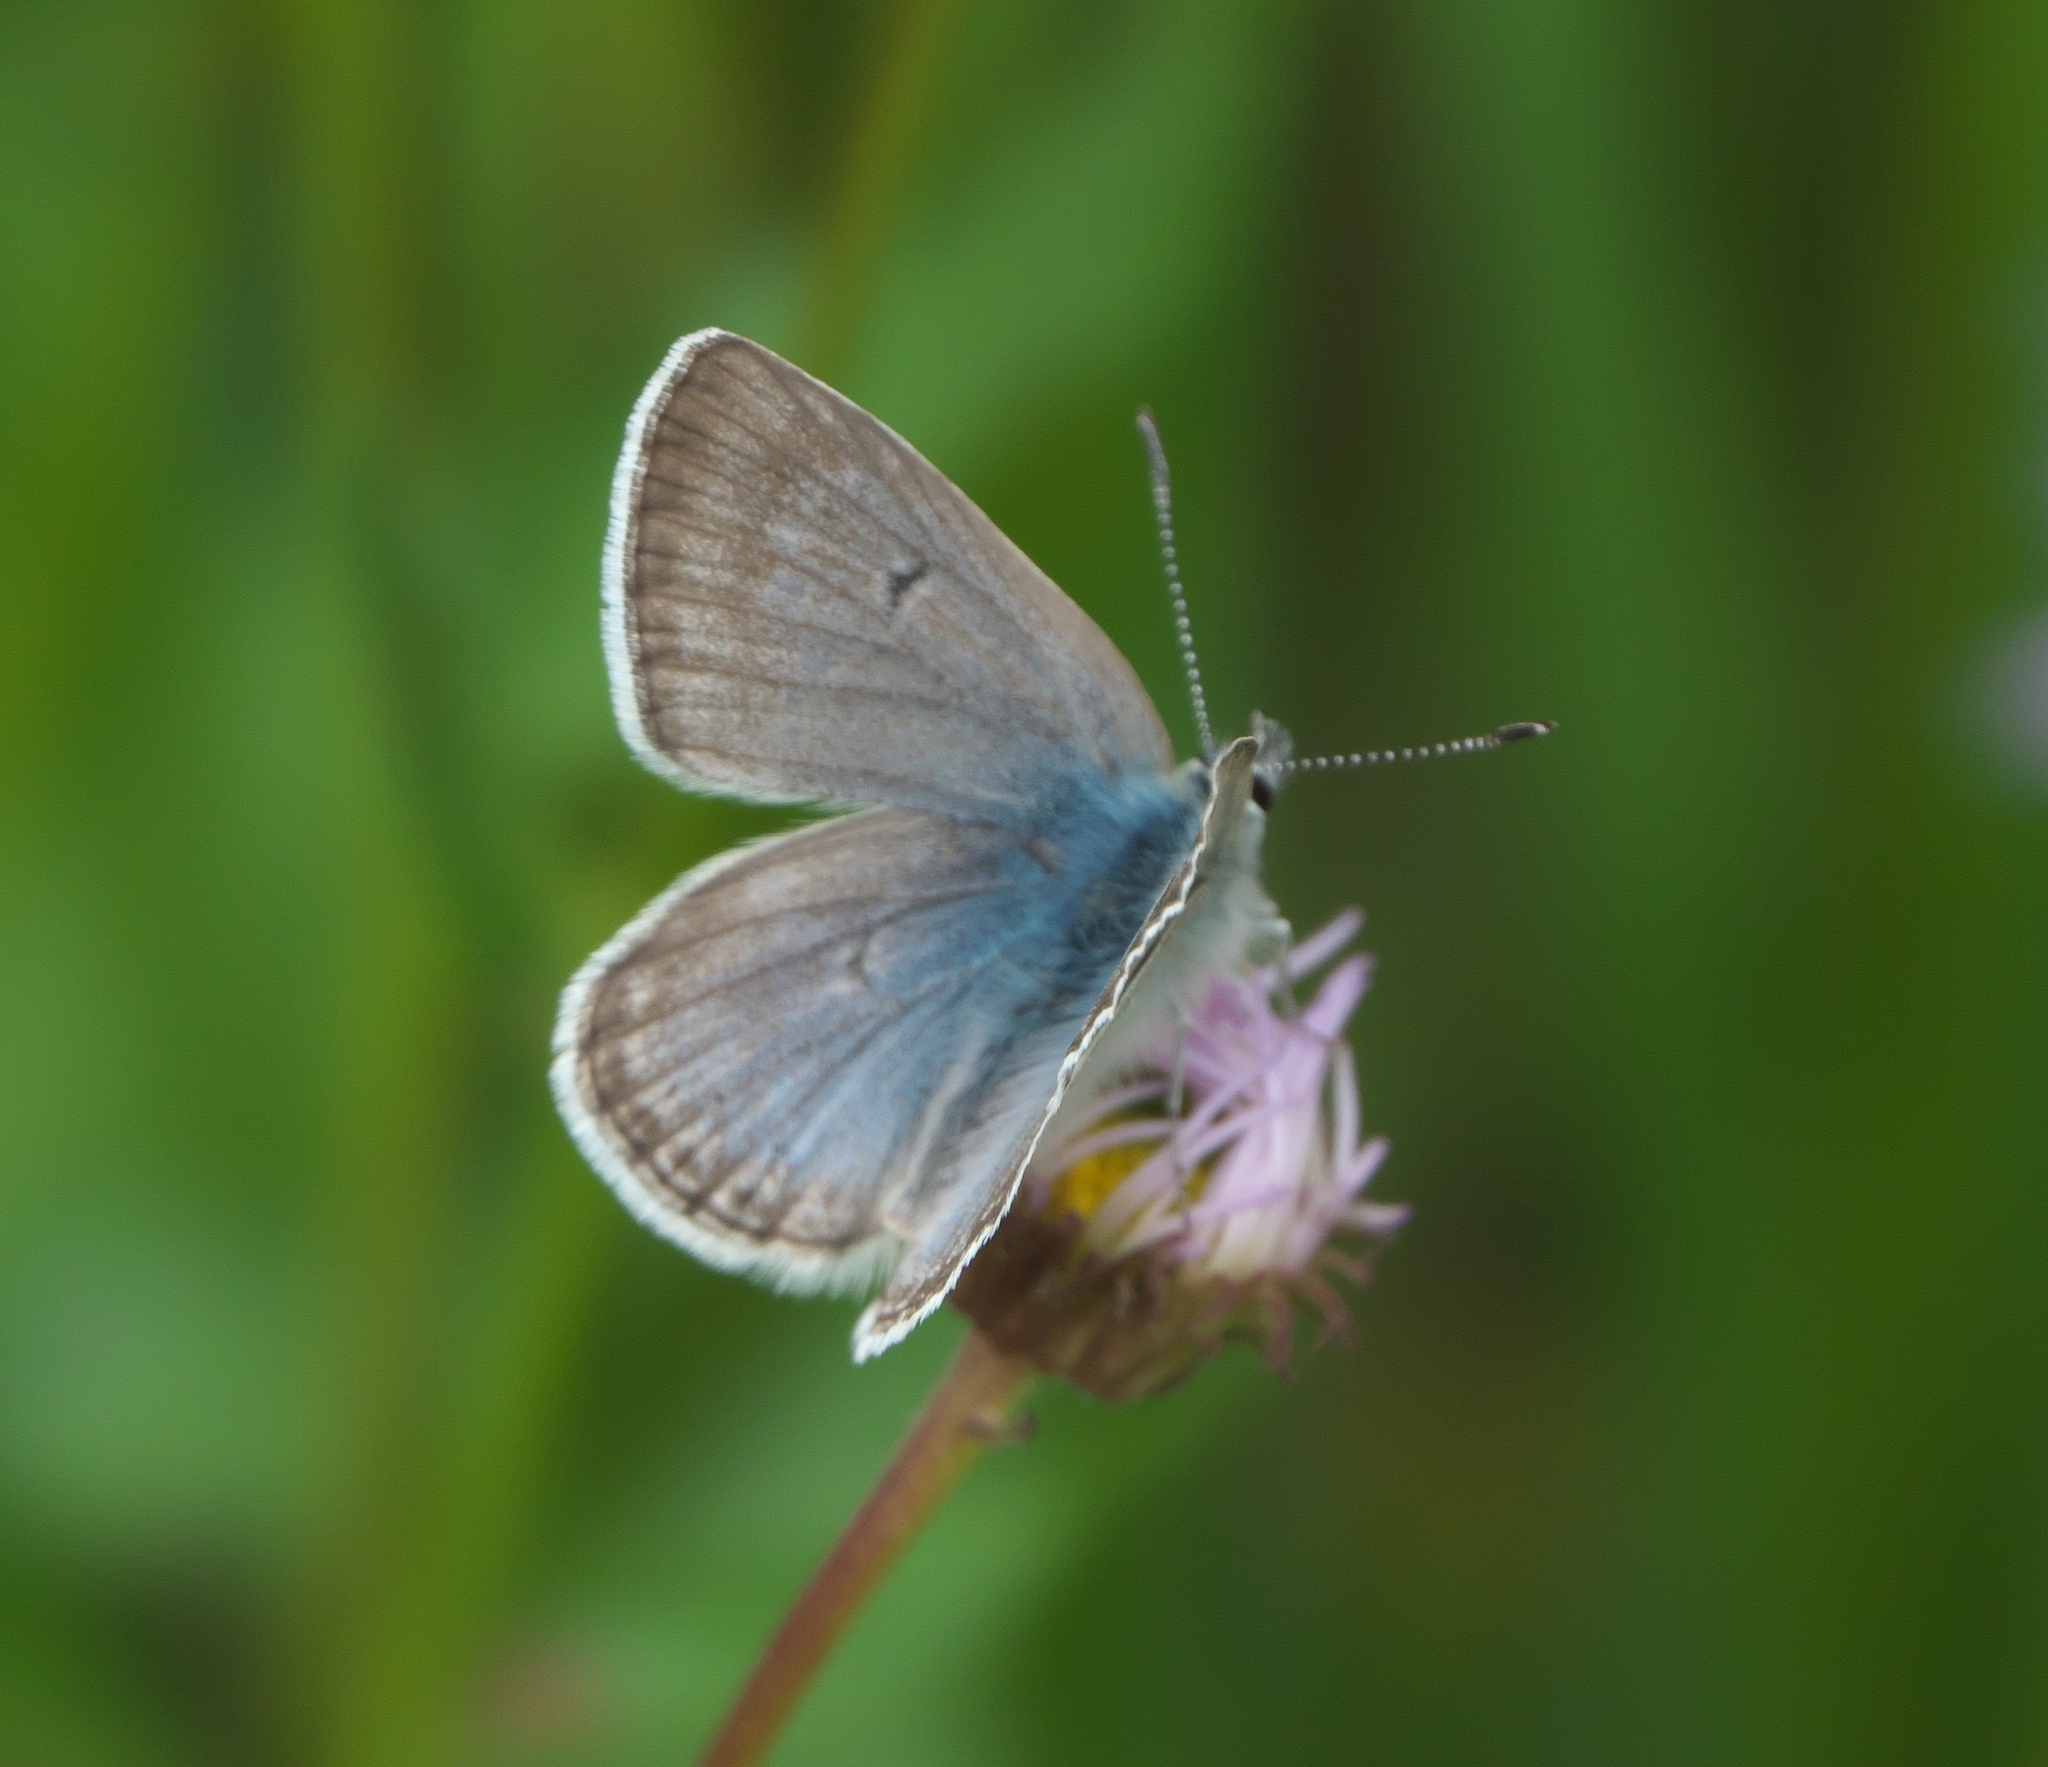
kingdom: Animalia
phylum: Arthropoda
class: Insecta
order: Lepidoptera
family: Lycaenidae
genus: Agriades
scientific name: Agriades glandon
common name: Glandon blue
